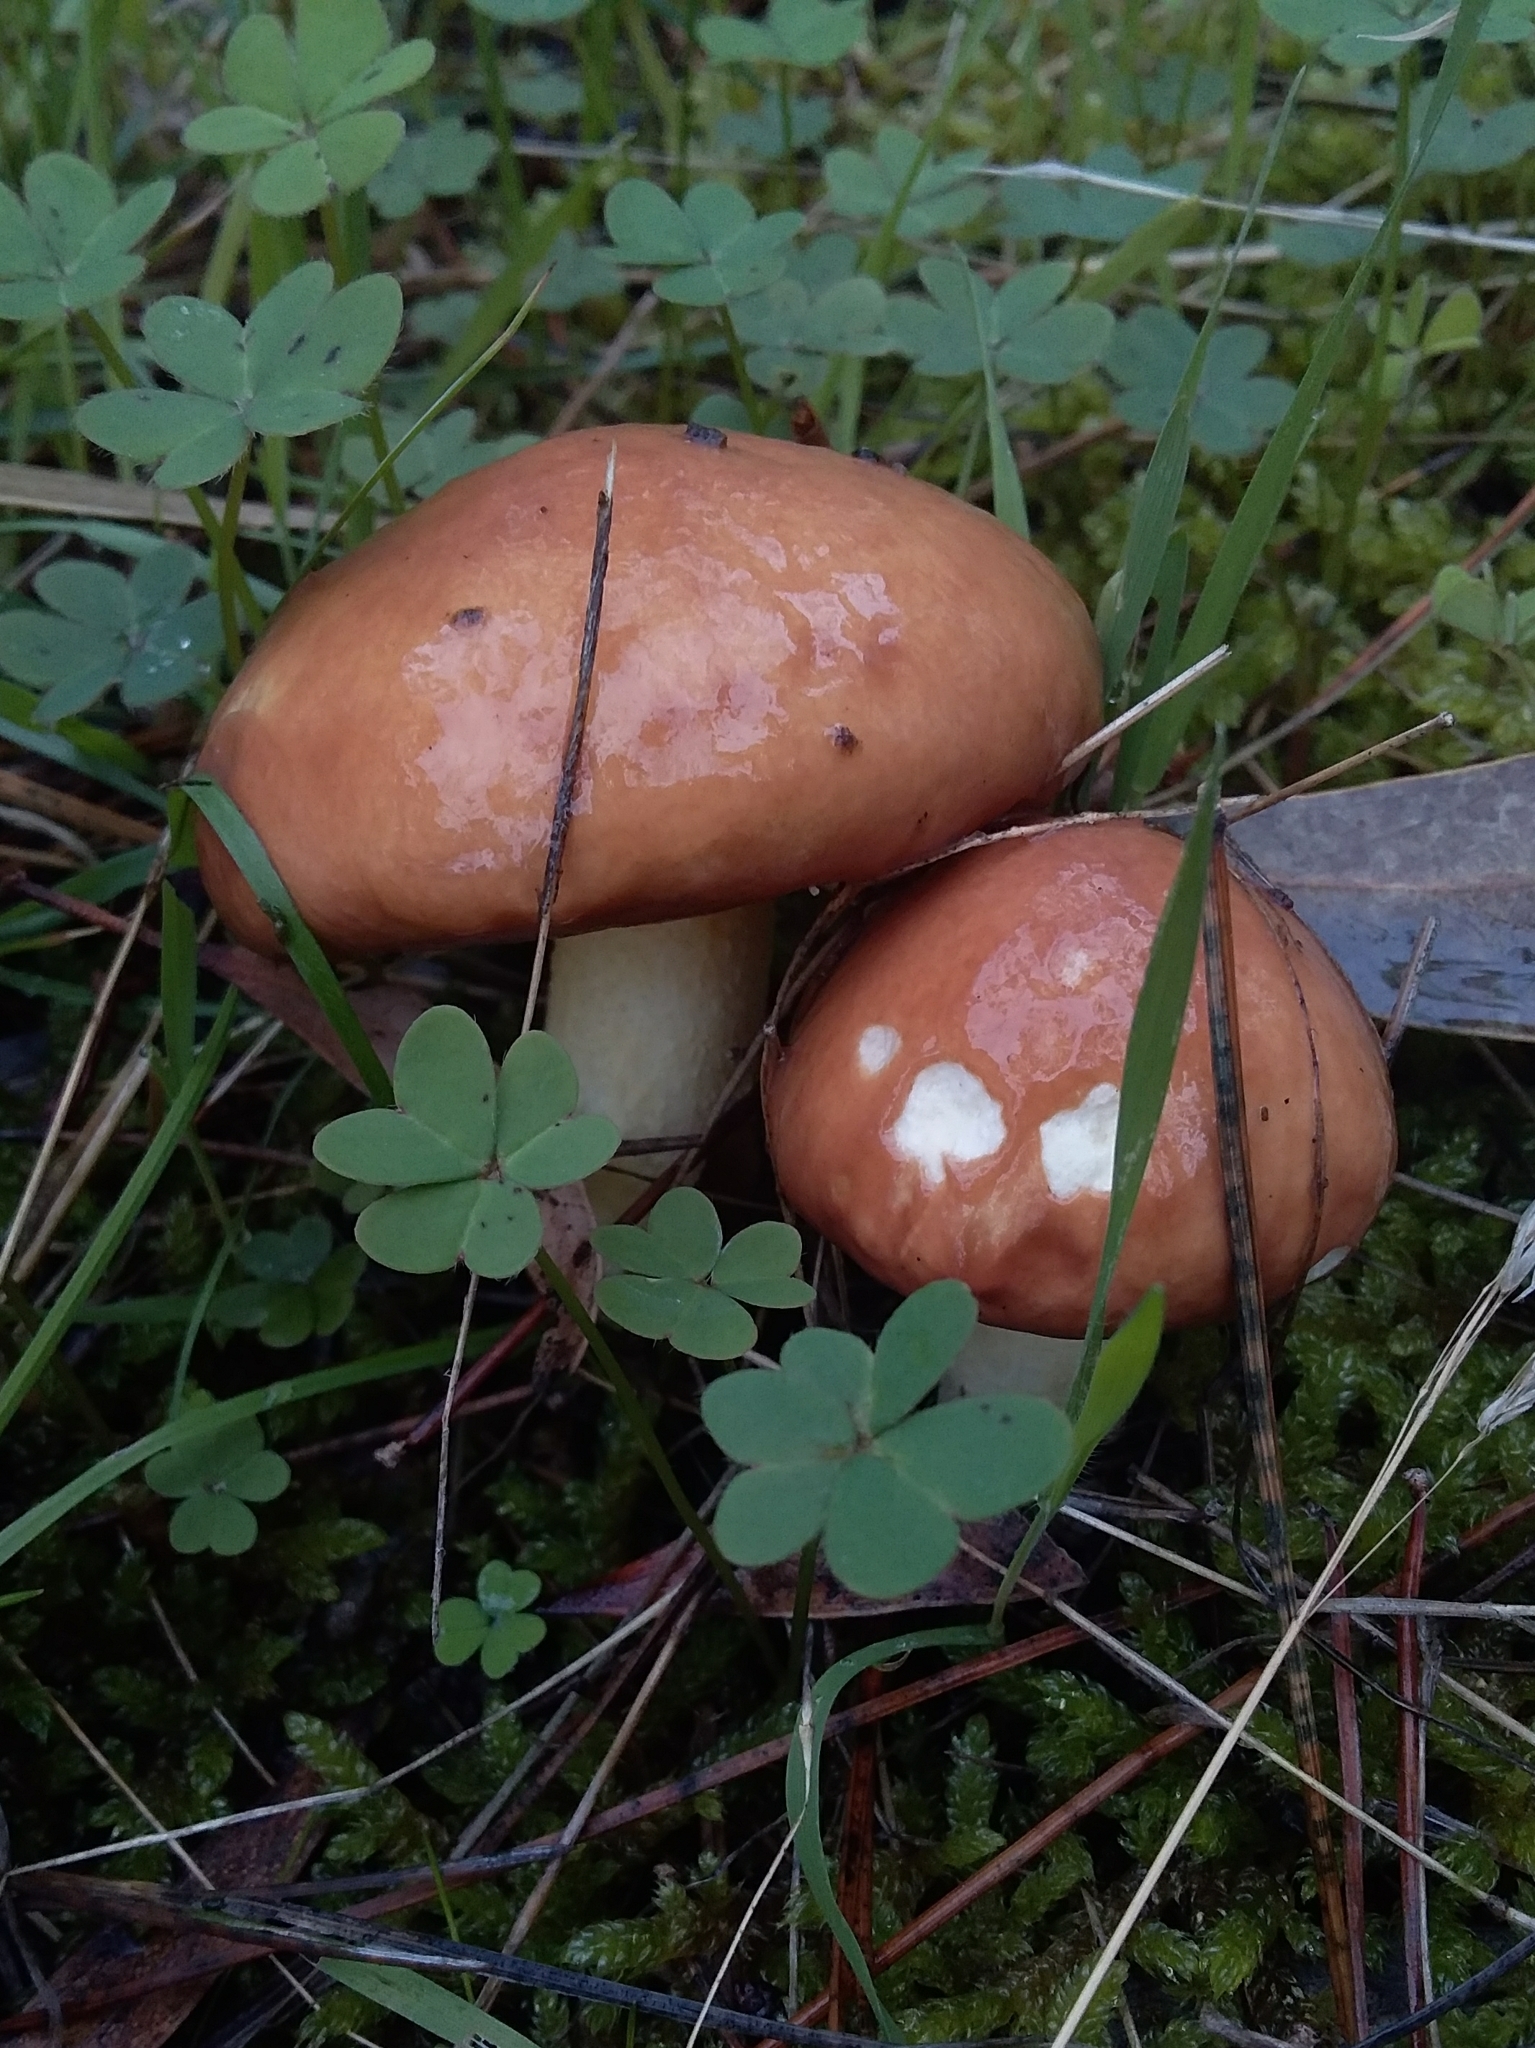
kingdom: Fungi
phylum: Basidiomycota
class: Agaricomycetes
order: Boletales
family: Suillaceae
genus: Suillus
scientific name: Suillus granulatus
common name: Weeping bolete
